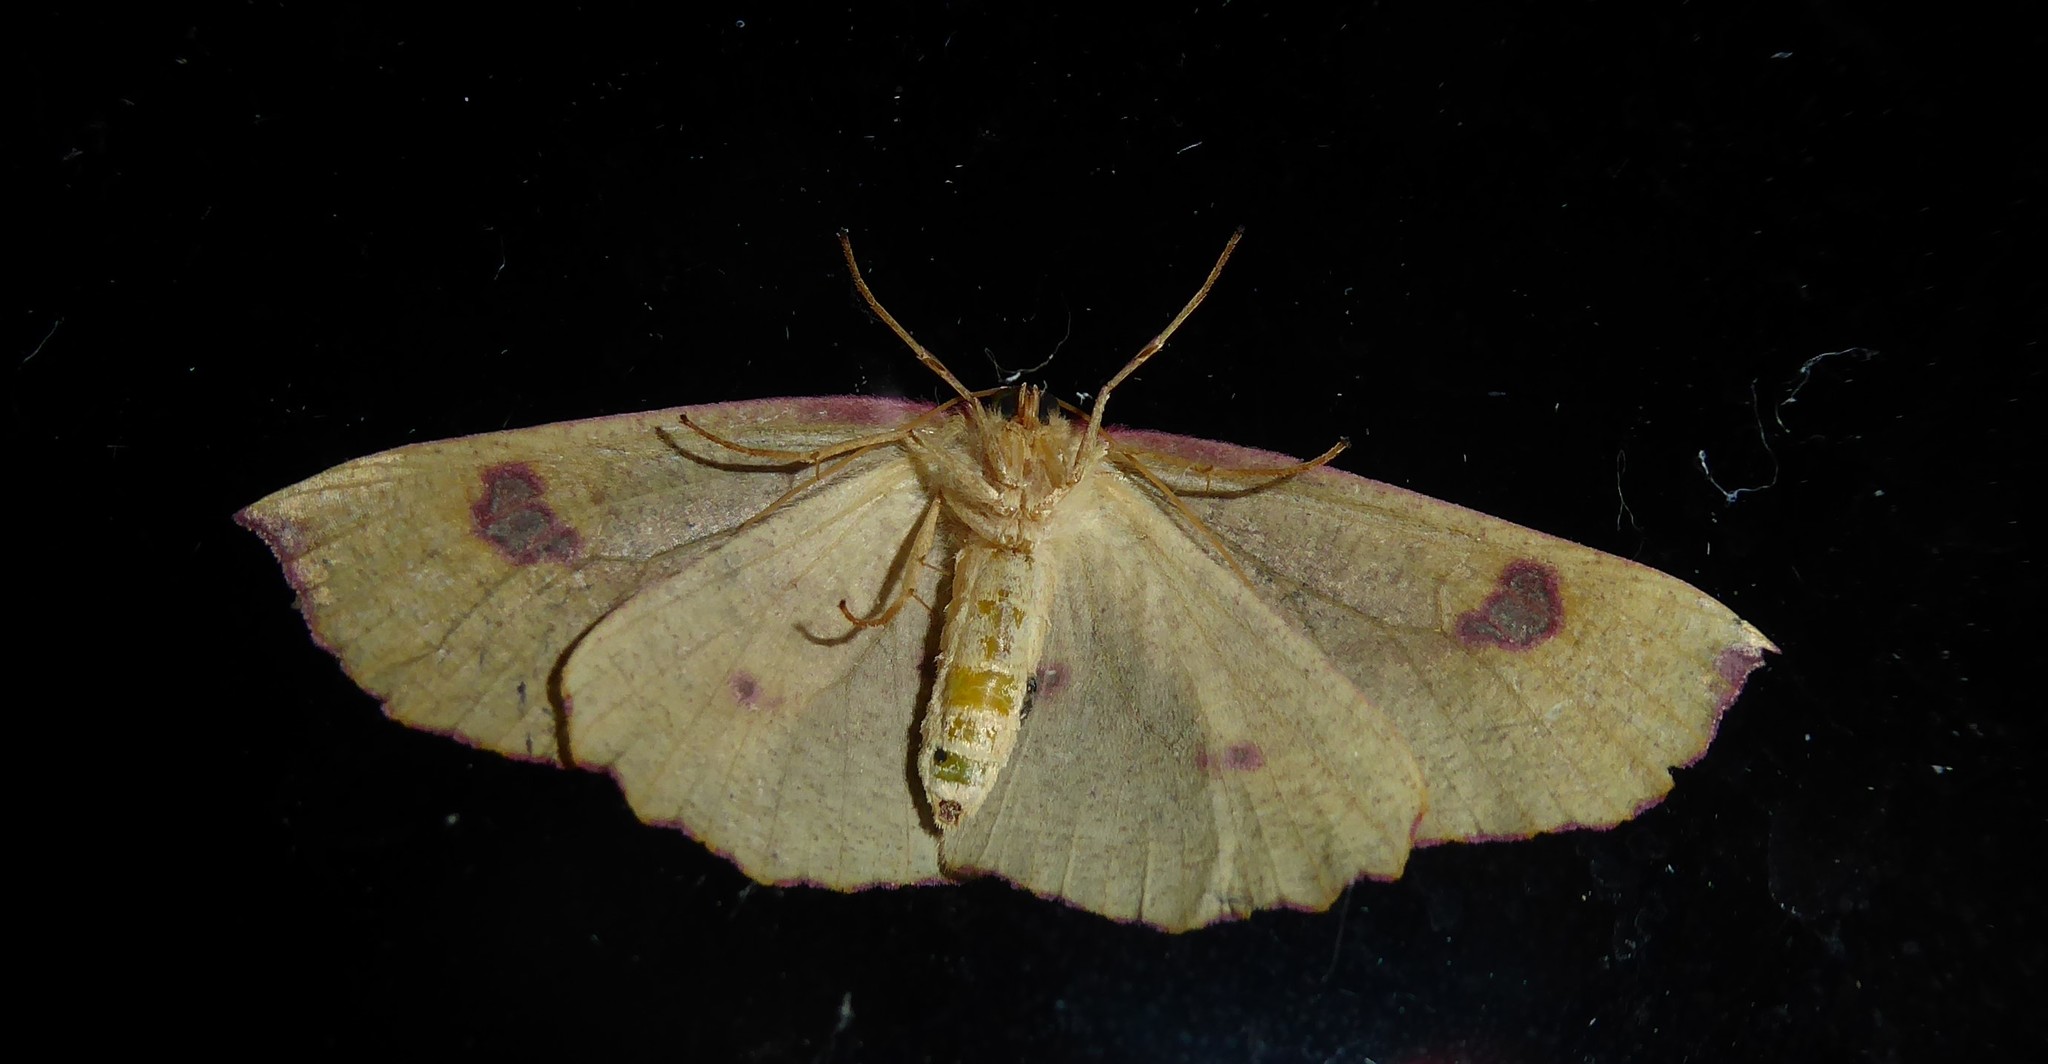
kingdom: Animalia
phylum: Arthropoda
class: Insecta
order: Lepidoptera
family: Geometridae
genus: Xyridacma
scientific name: Xyridacma alectoraria
